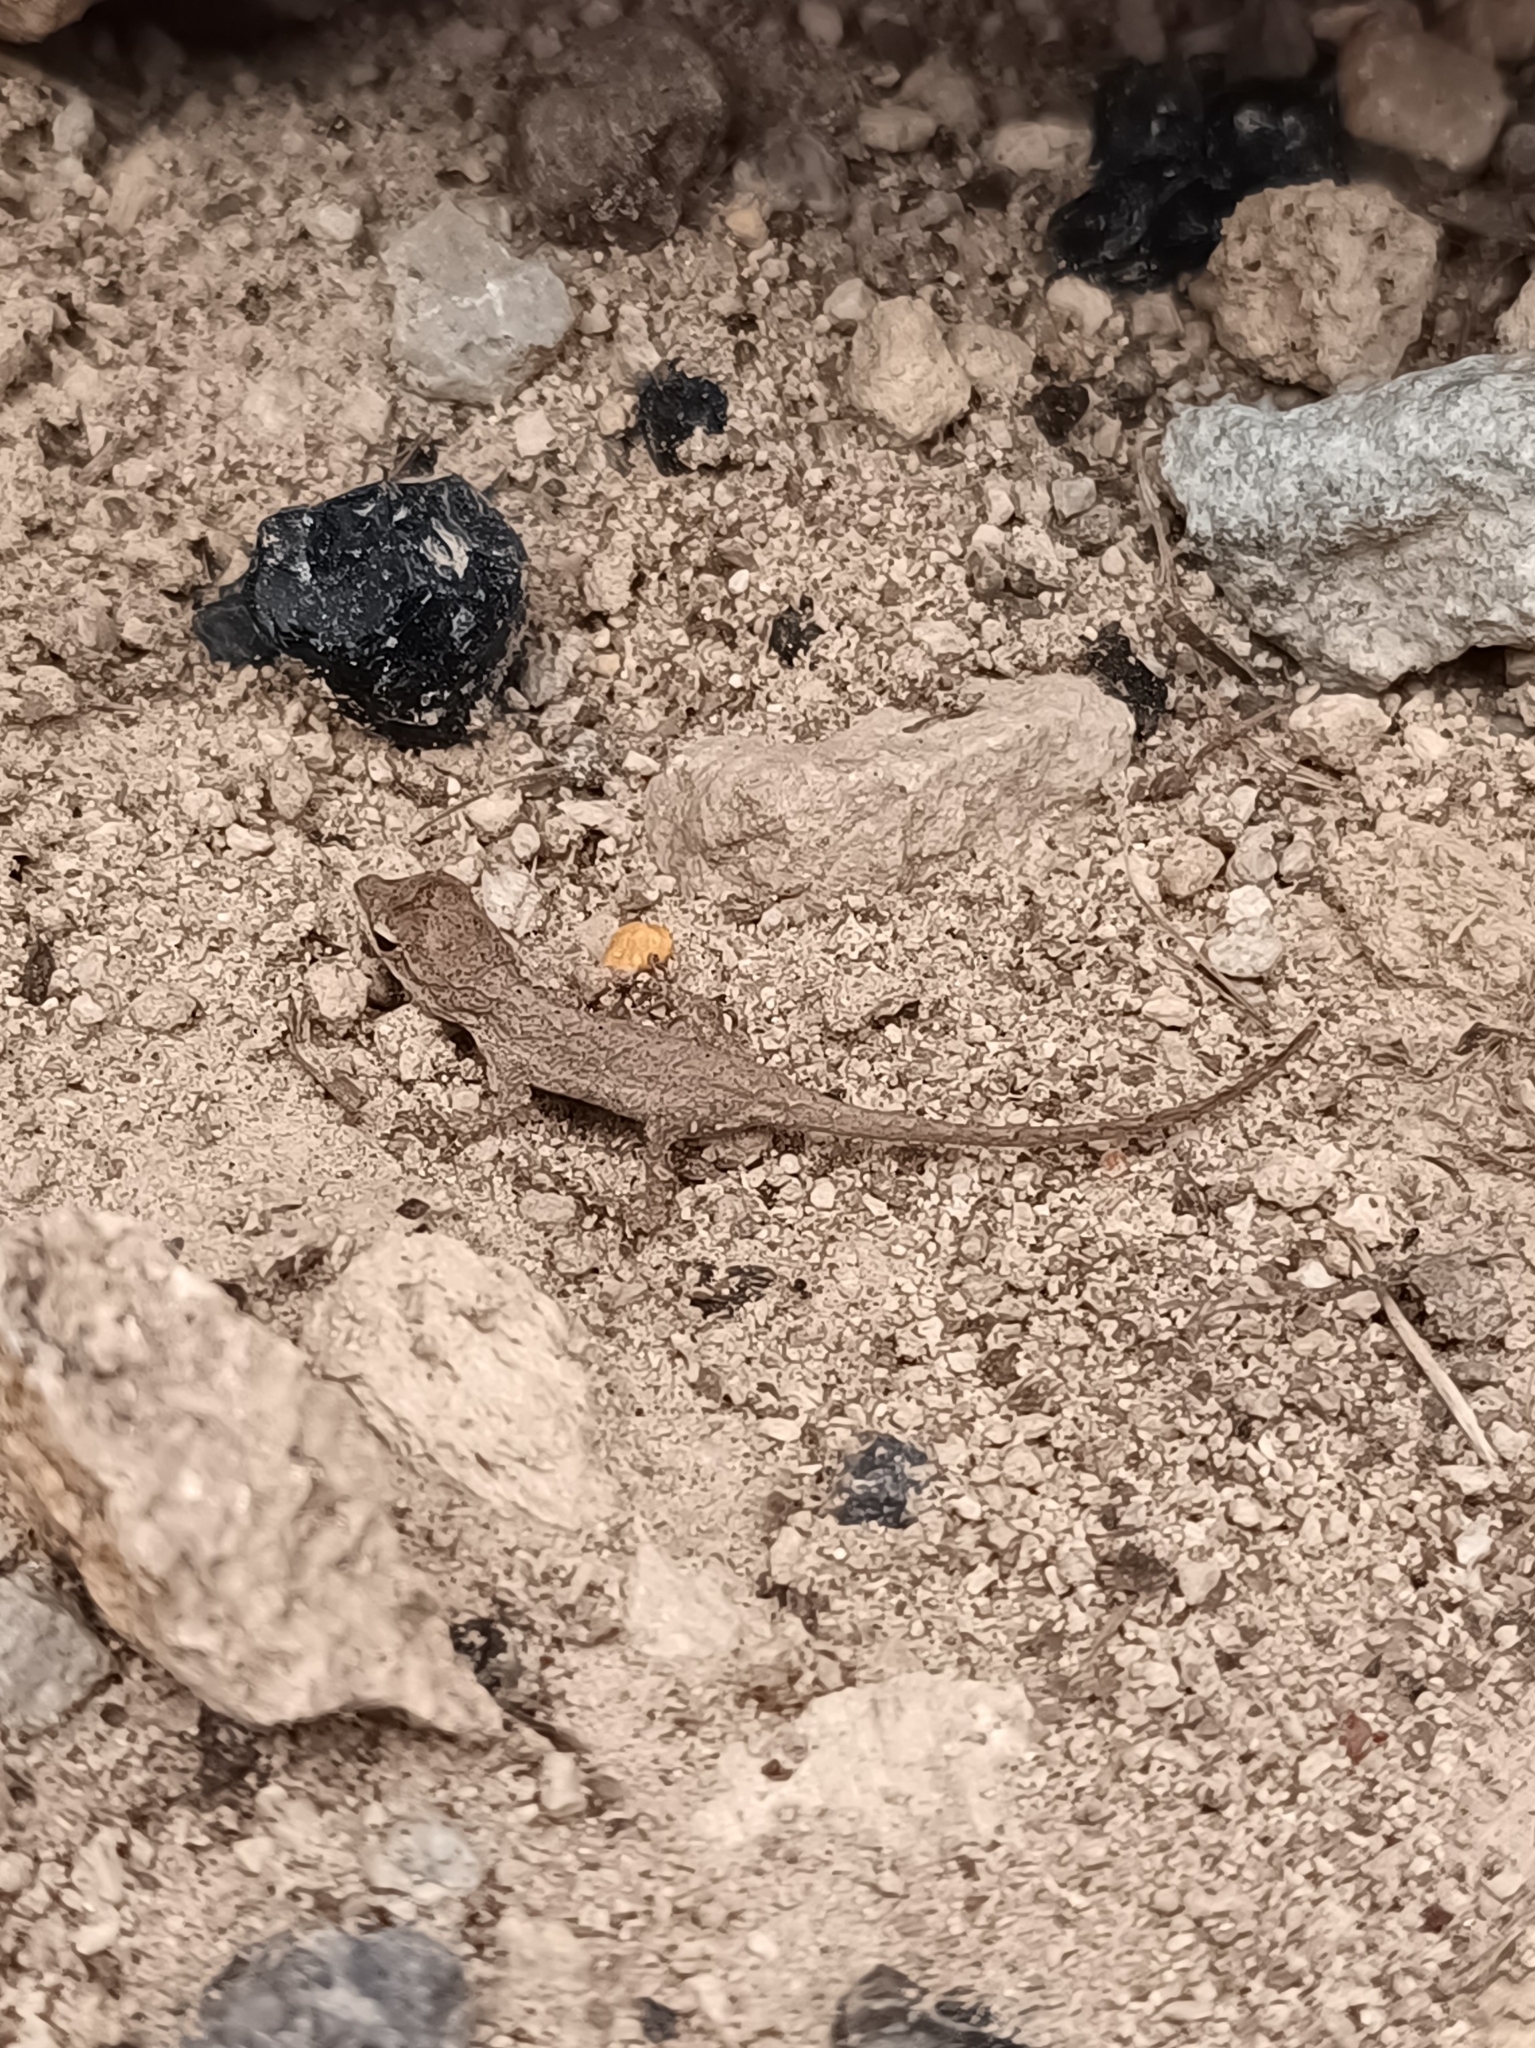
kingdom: Animalia
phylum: Chordata
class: Squamata
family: Dactyloidae
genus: Anolis
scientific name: Anolis nebulosus
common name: Clouded anole
